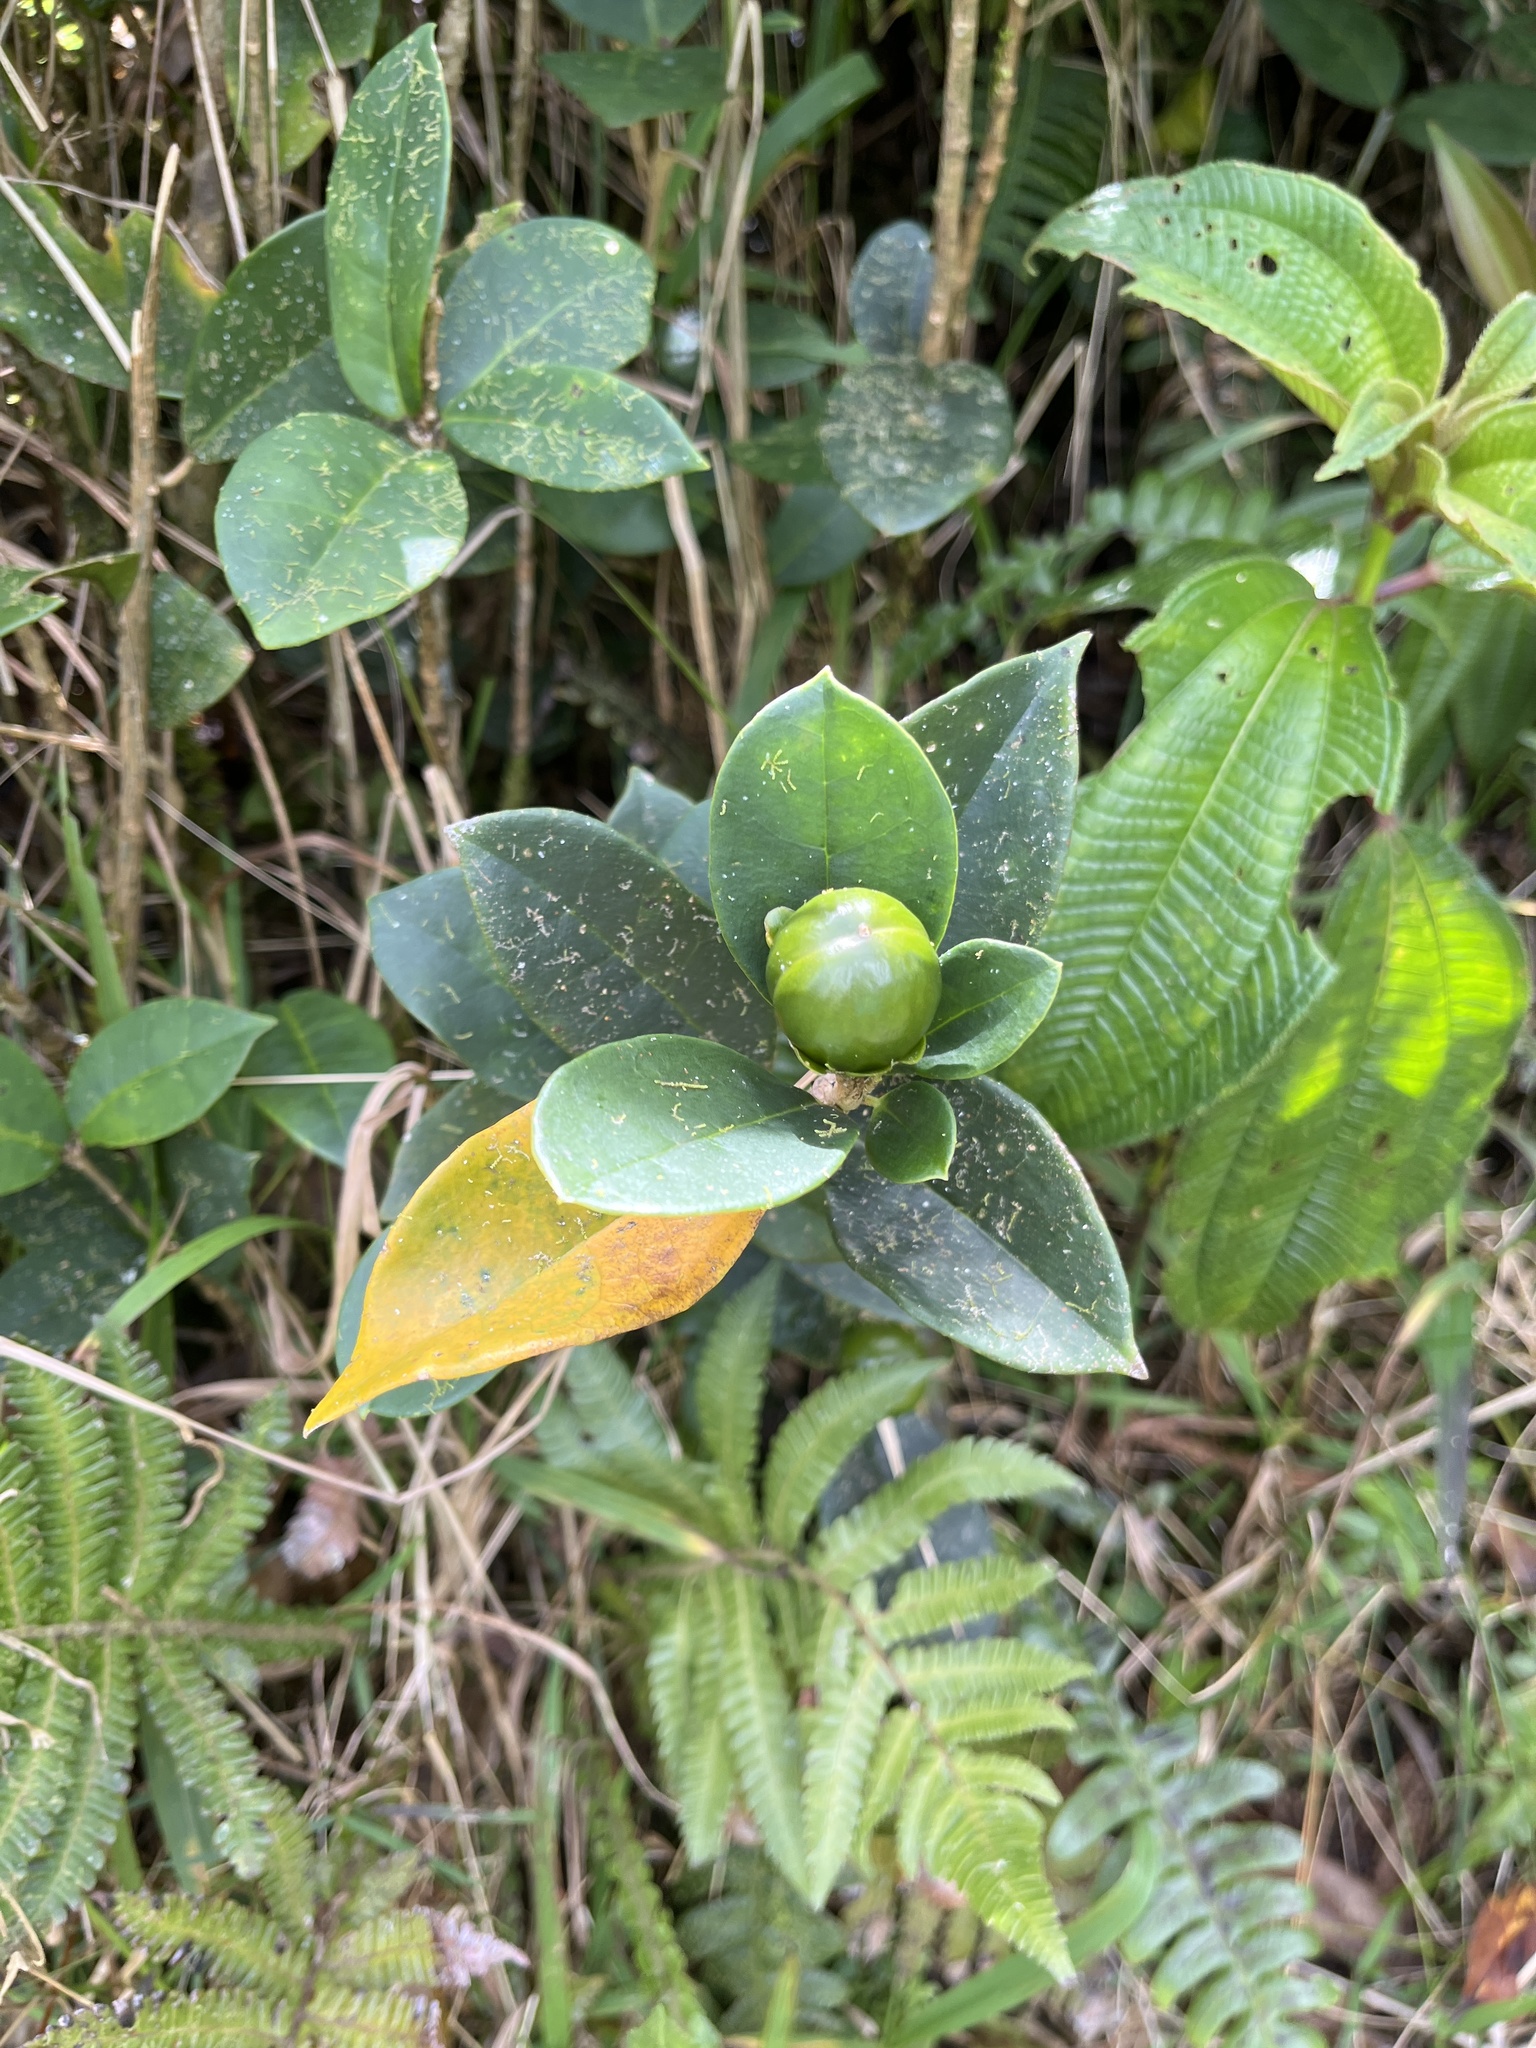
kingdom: Plantae
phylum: Tracheophyta
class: Magnoliopsida
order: Solanales
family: Solanaceae
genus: Brunfelsia
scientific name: Brunfelsia lactea
